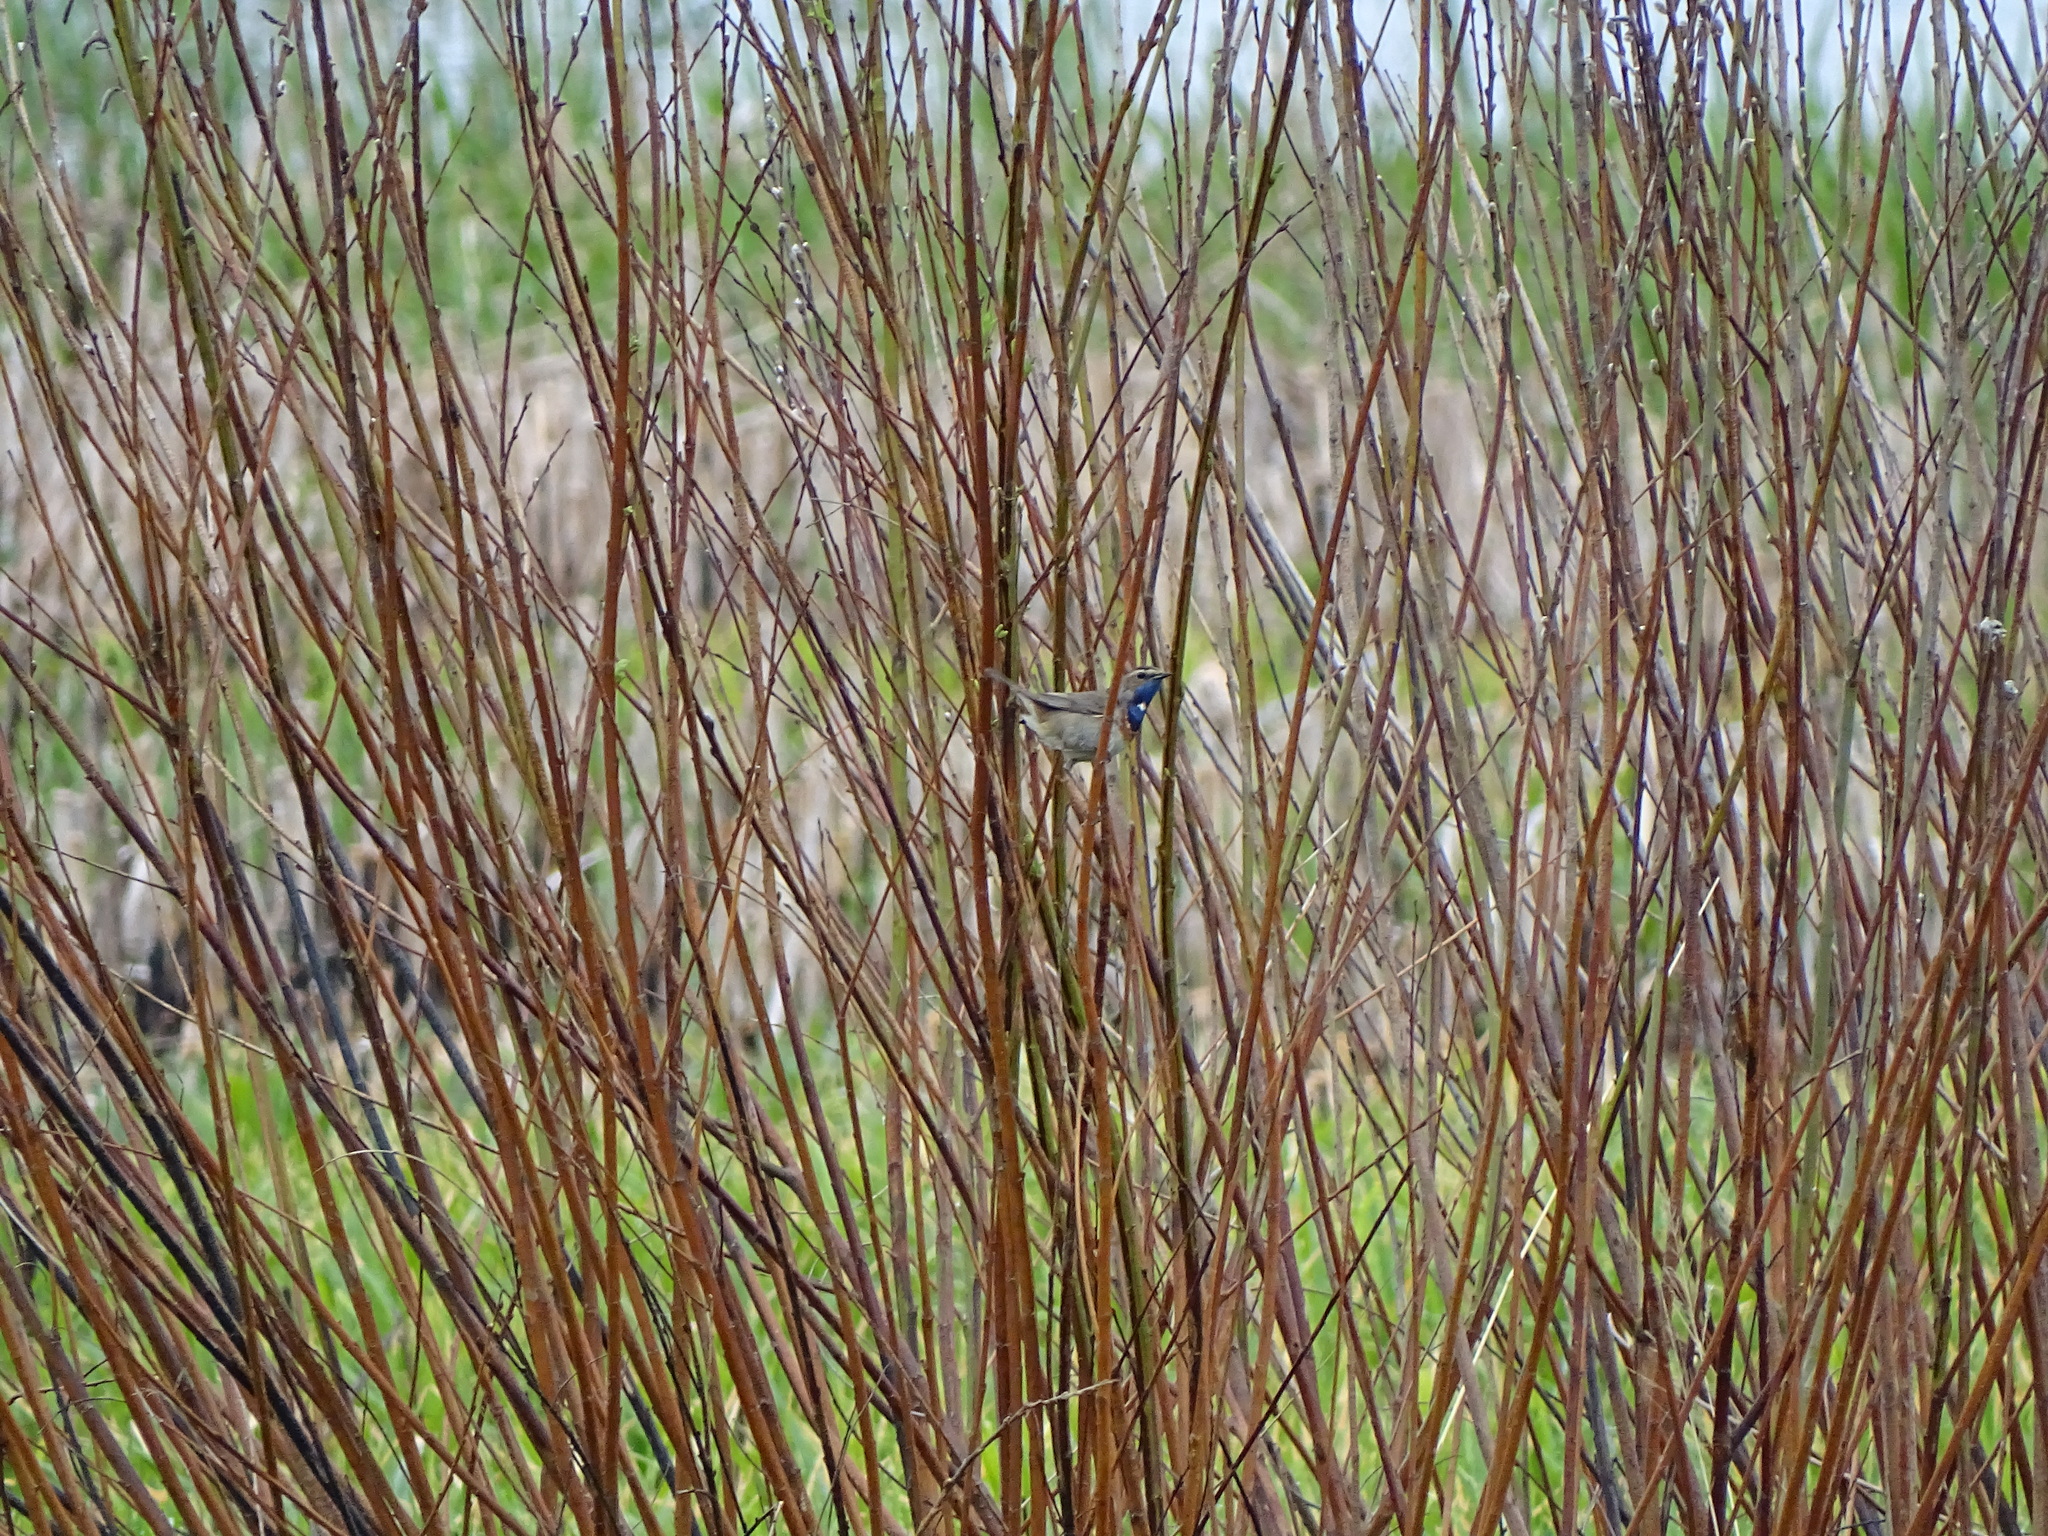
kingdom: Animalia
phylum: Chordata
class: Aves
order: Passeriformes
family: Muscicapidae
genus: Luscinia
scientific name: Luscinia svecica
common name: Bluethroat
